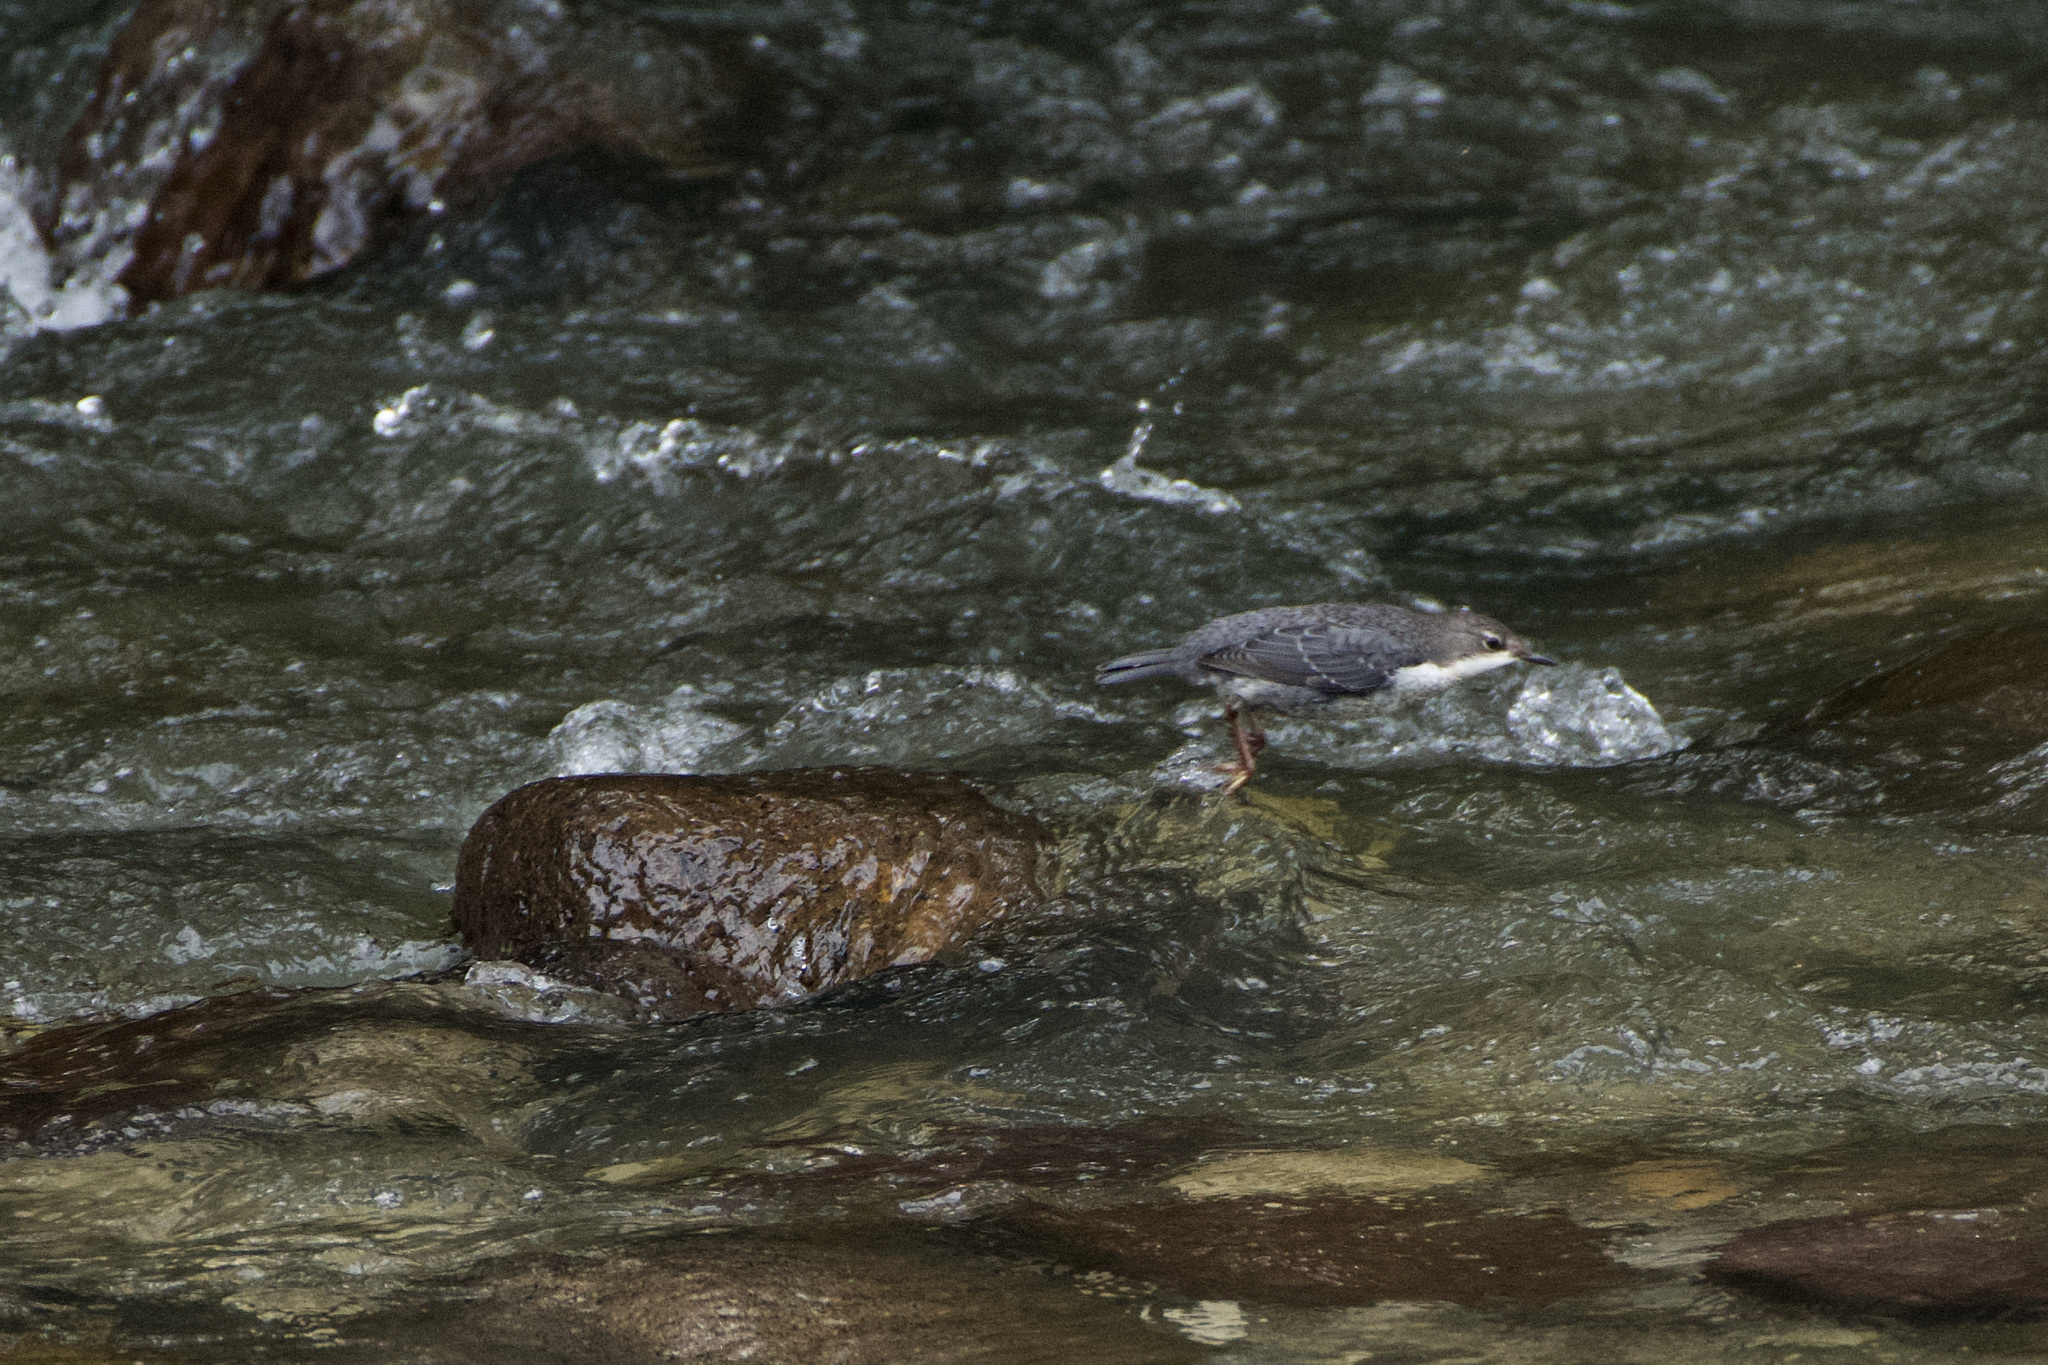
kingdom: Animalia
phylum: Chordata
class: Aves
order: Passeriformes
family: Cinclidae
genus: Cinclus
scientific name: Cinclus cinclus
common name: White-throated dipper
